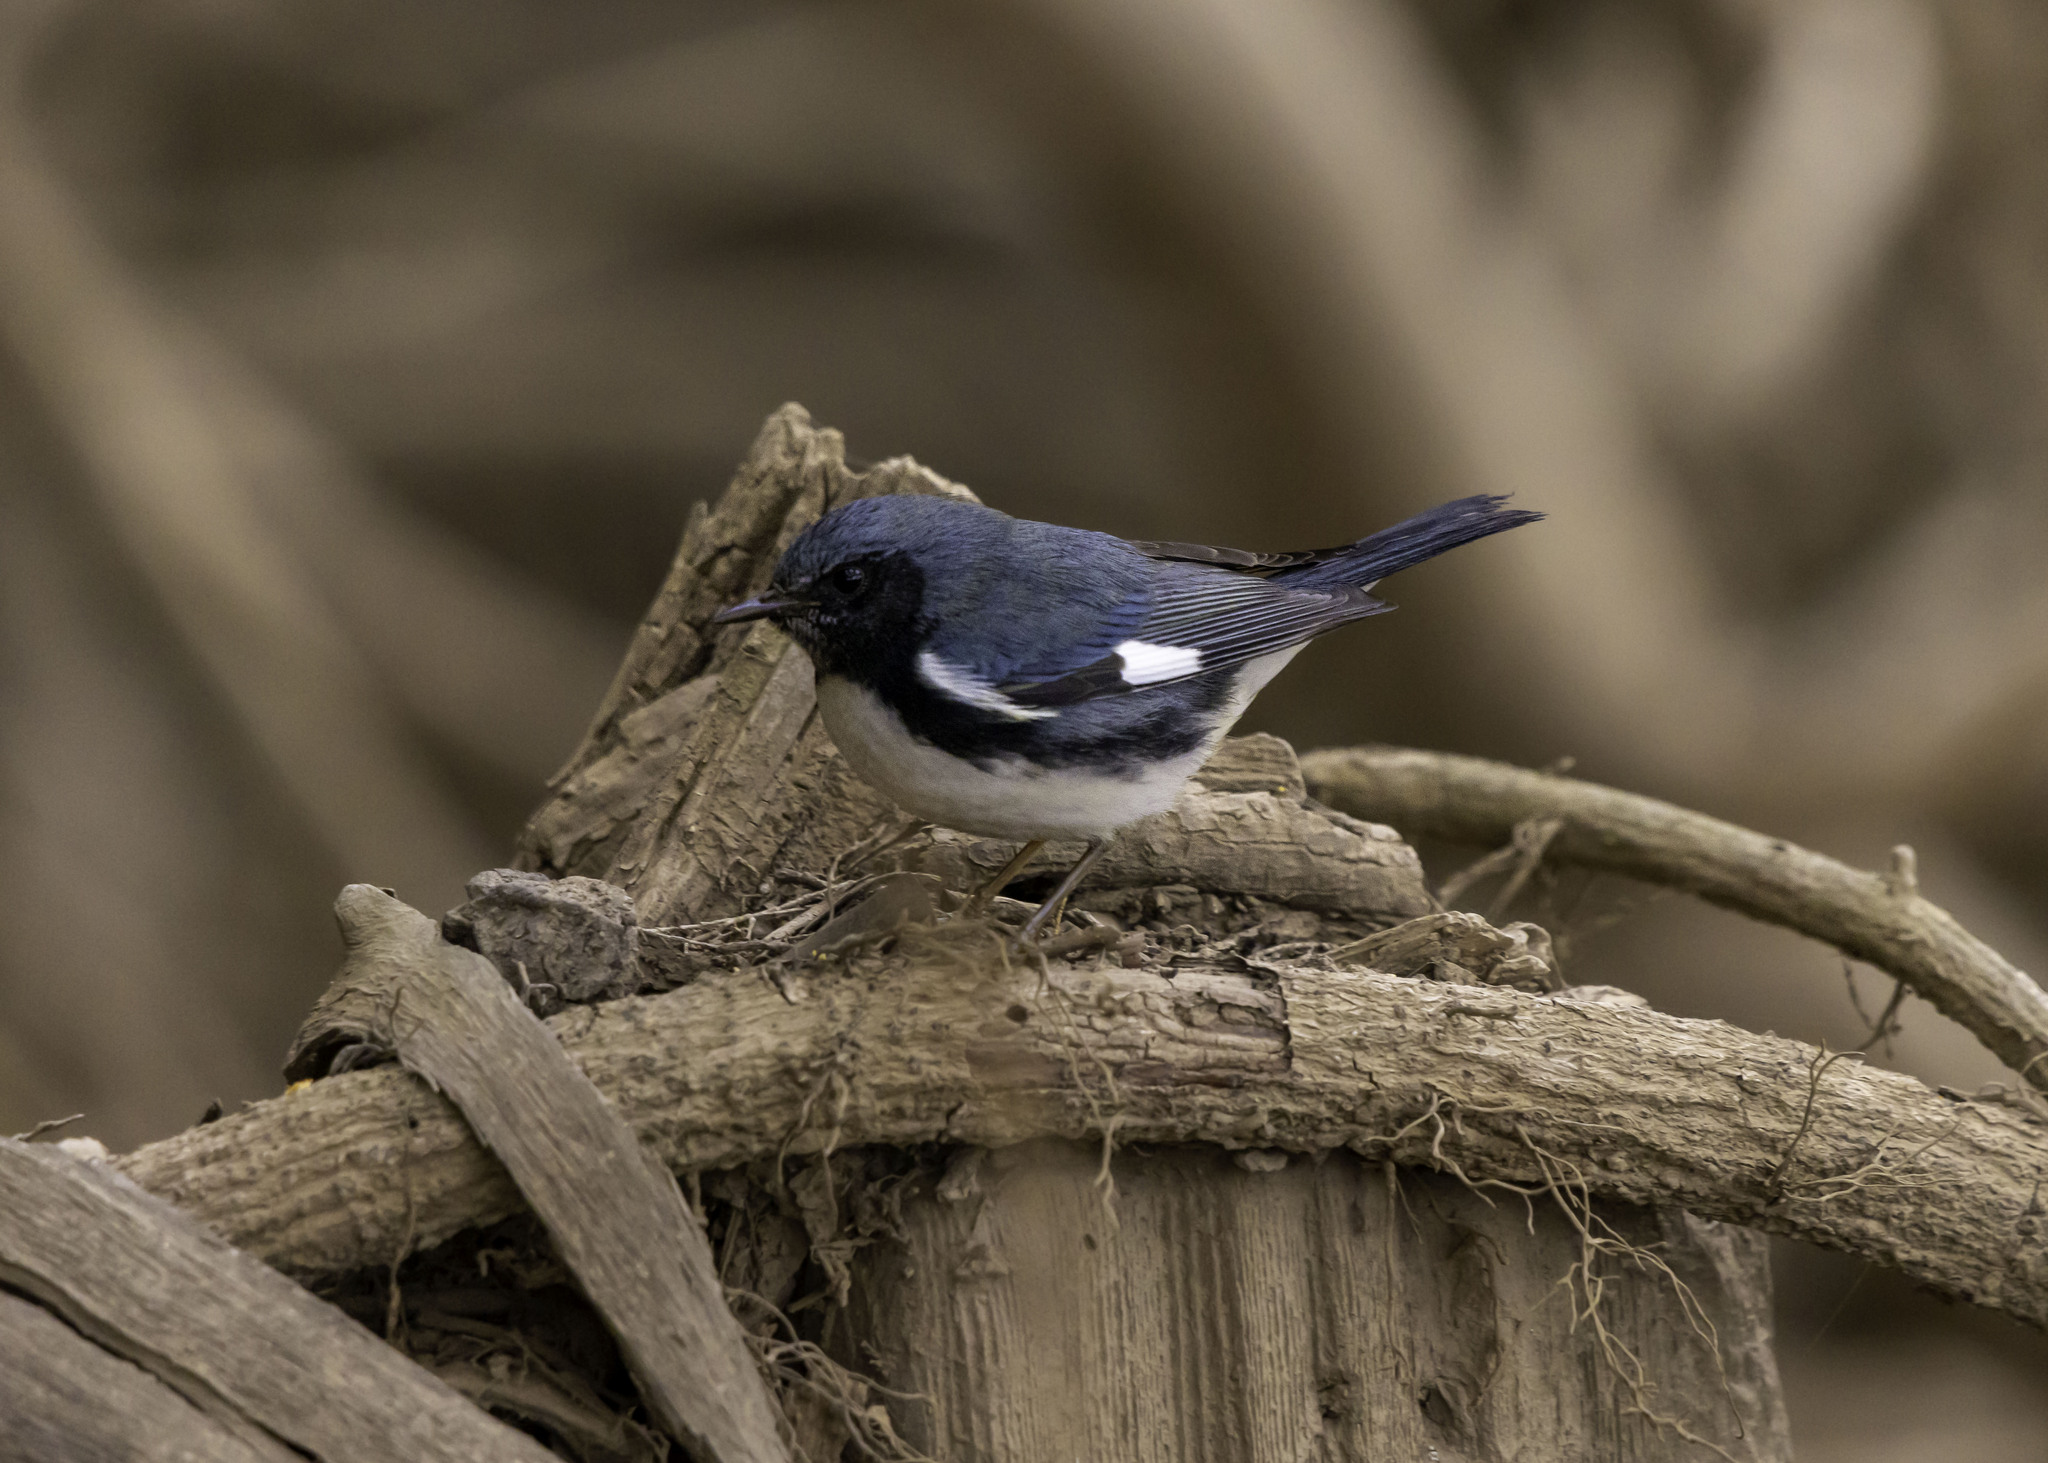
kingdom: Animalia
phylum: Chordata
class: Aves
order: Passeriformes
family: Parulidae
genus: Setophaga
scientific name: Setophaga caerulescens
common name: Black-throated blue warbler
